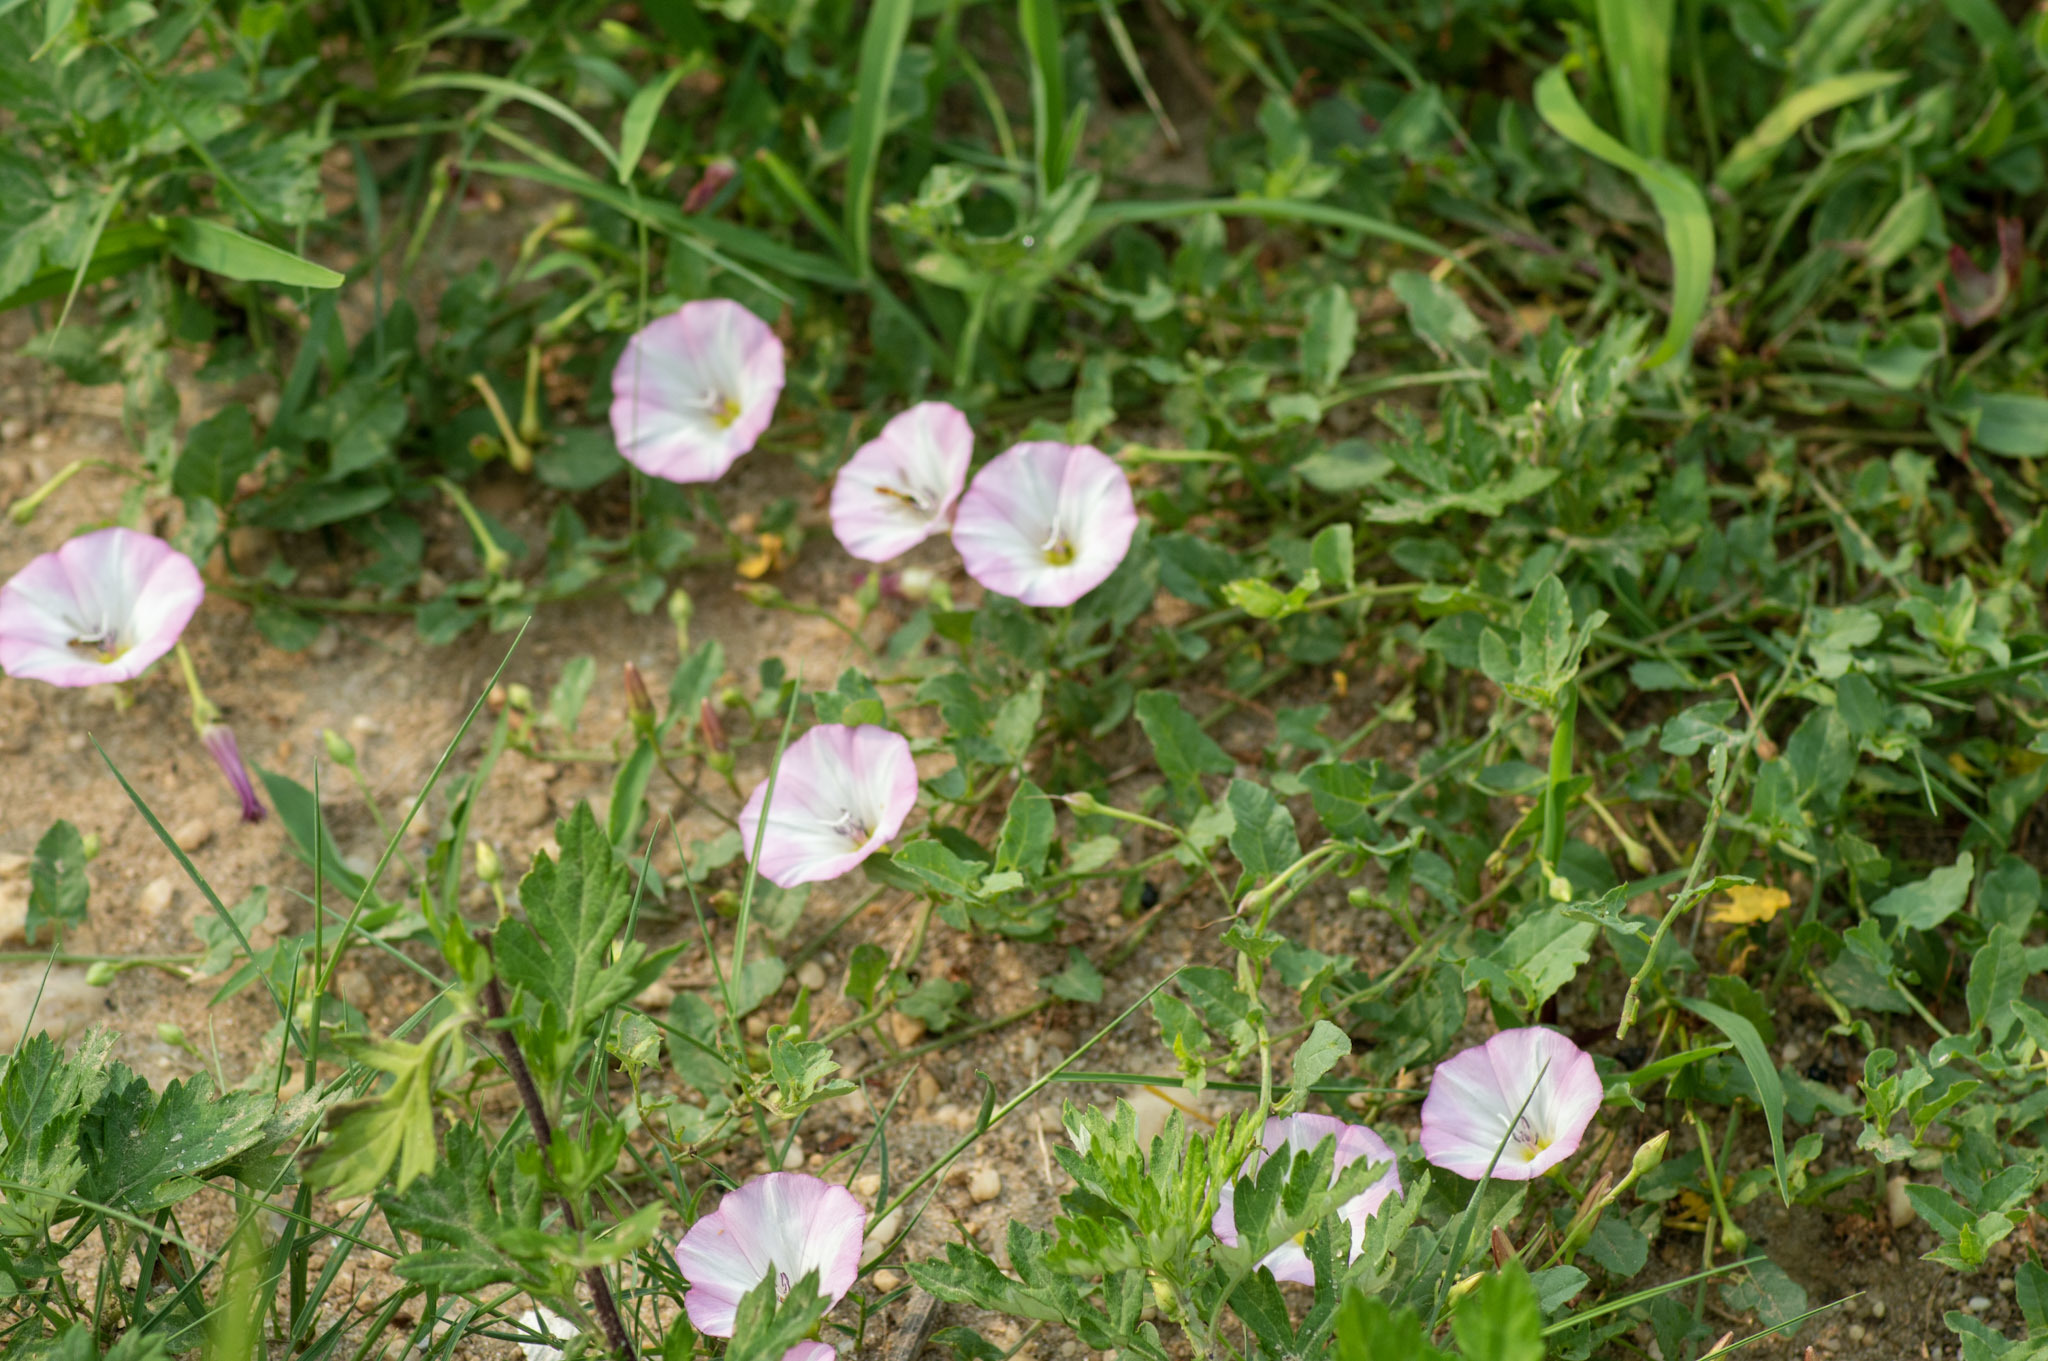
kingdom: Plantae
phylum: Tracheophyta
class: Magnoliopsida
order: Solanales
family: Convolvulaceae
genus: Convolvulus
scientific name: Convolvulus arvensis
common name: Field bindweed
